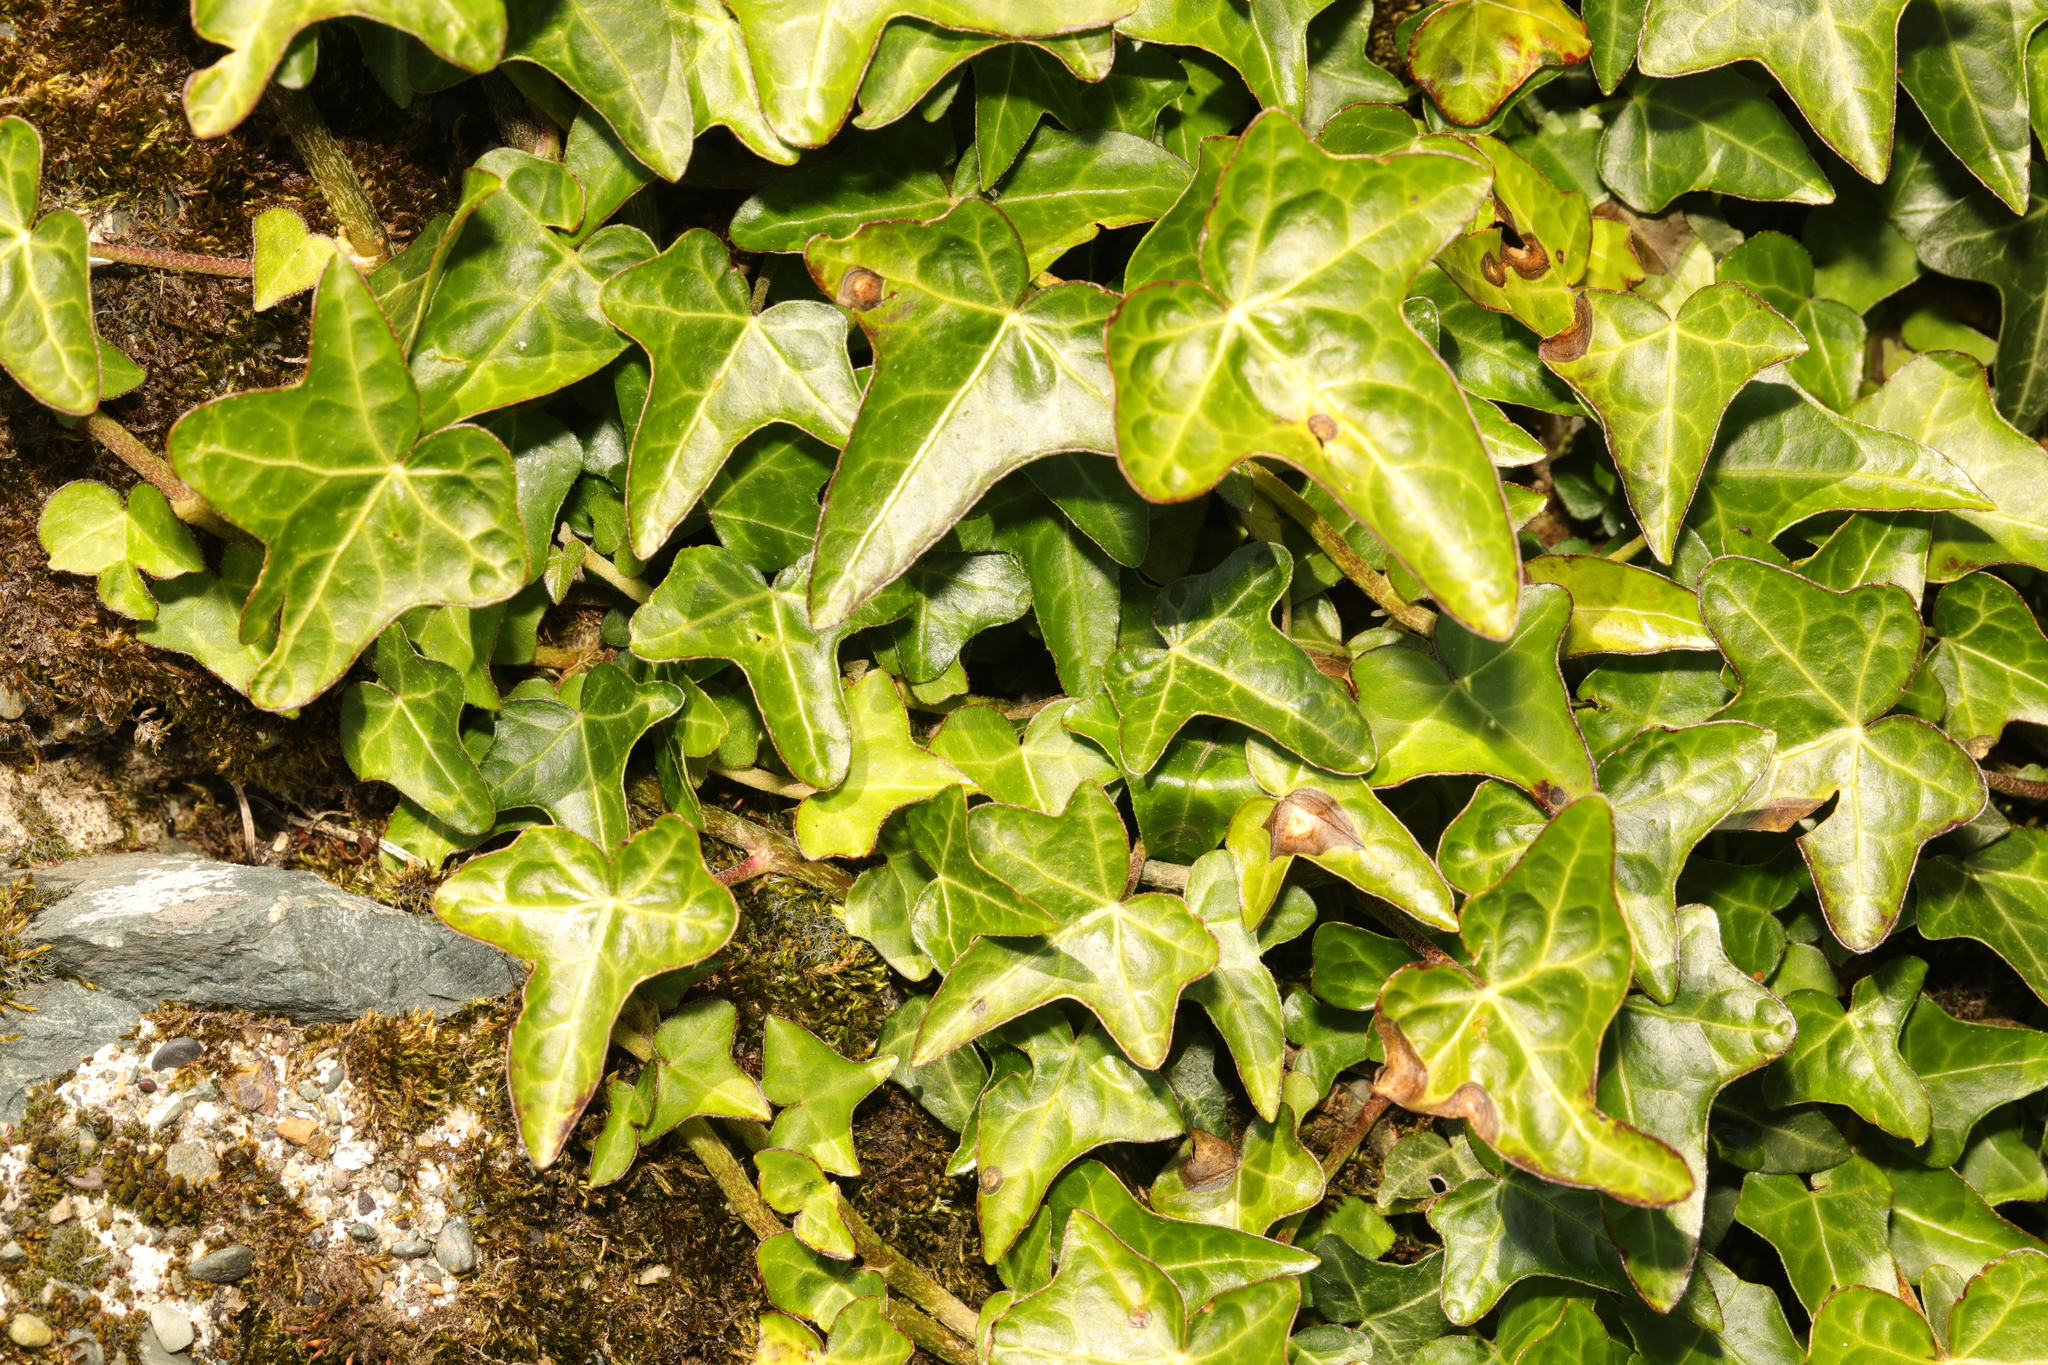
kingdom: Plantae
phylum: Tracheophyta
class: Magnoliopsida
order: Apiales
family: Araliaceae
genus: Hedera
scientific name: Hedera helix
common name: Ivy
